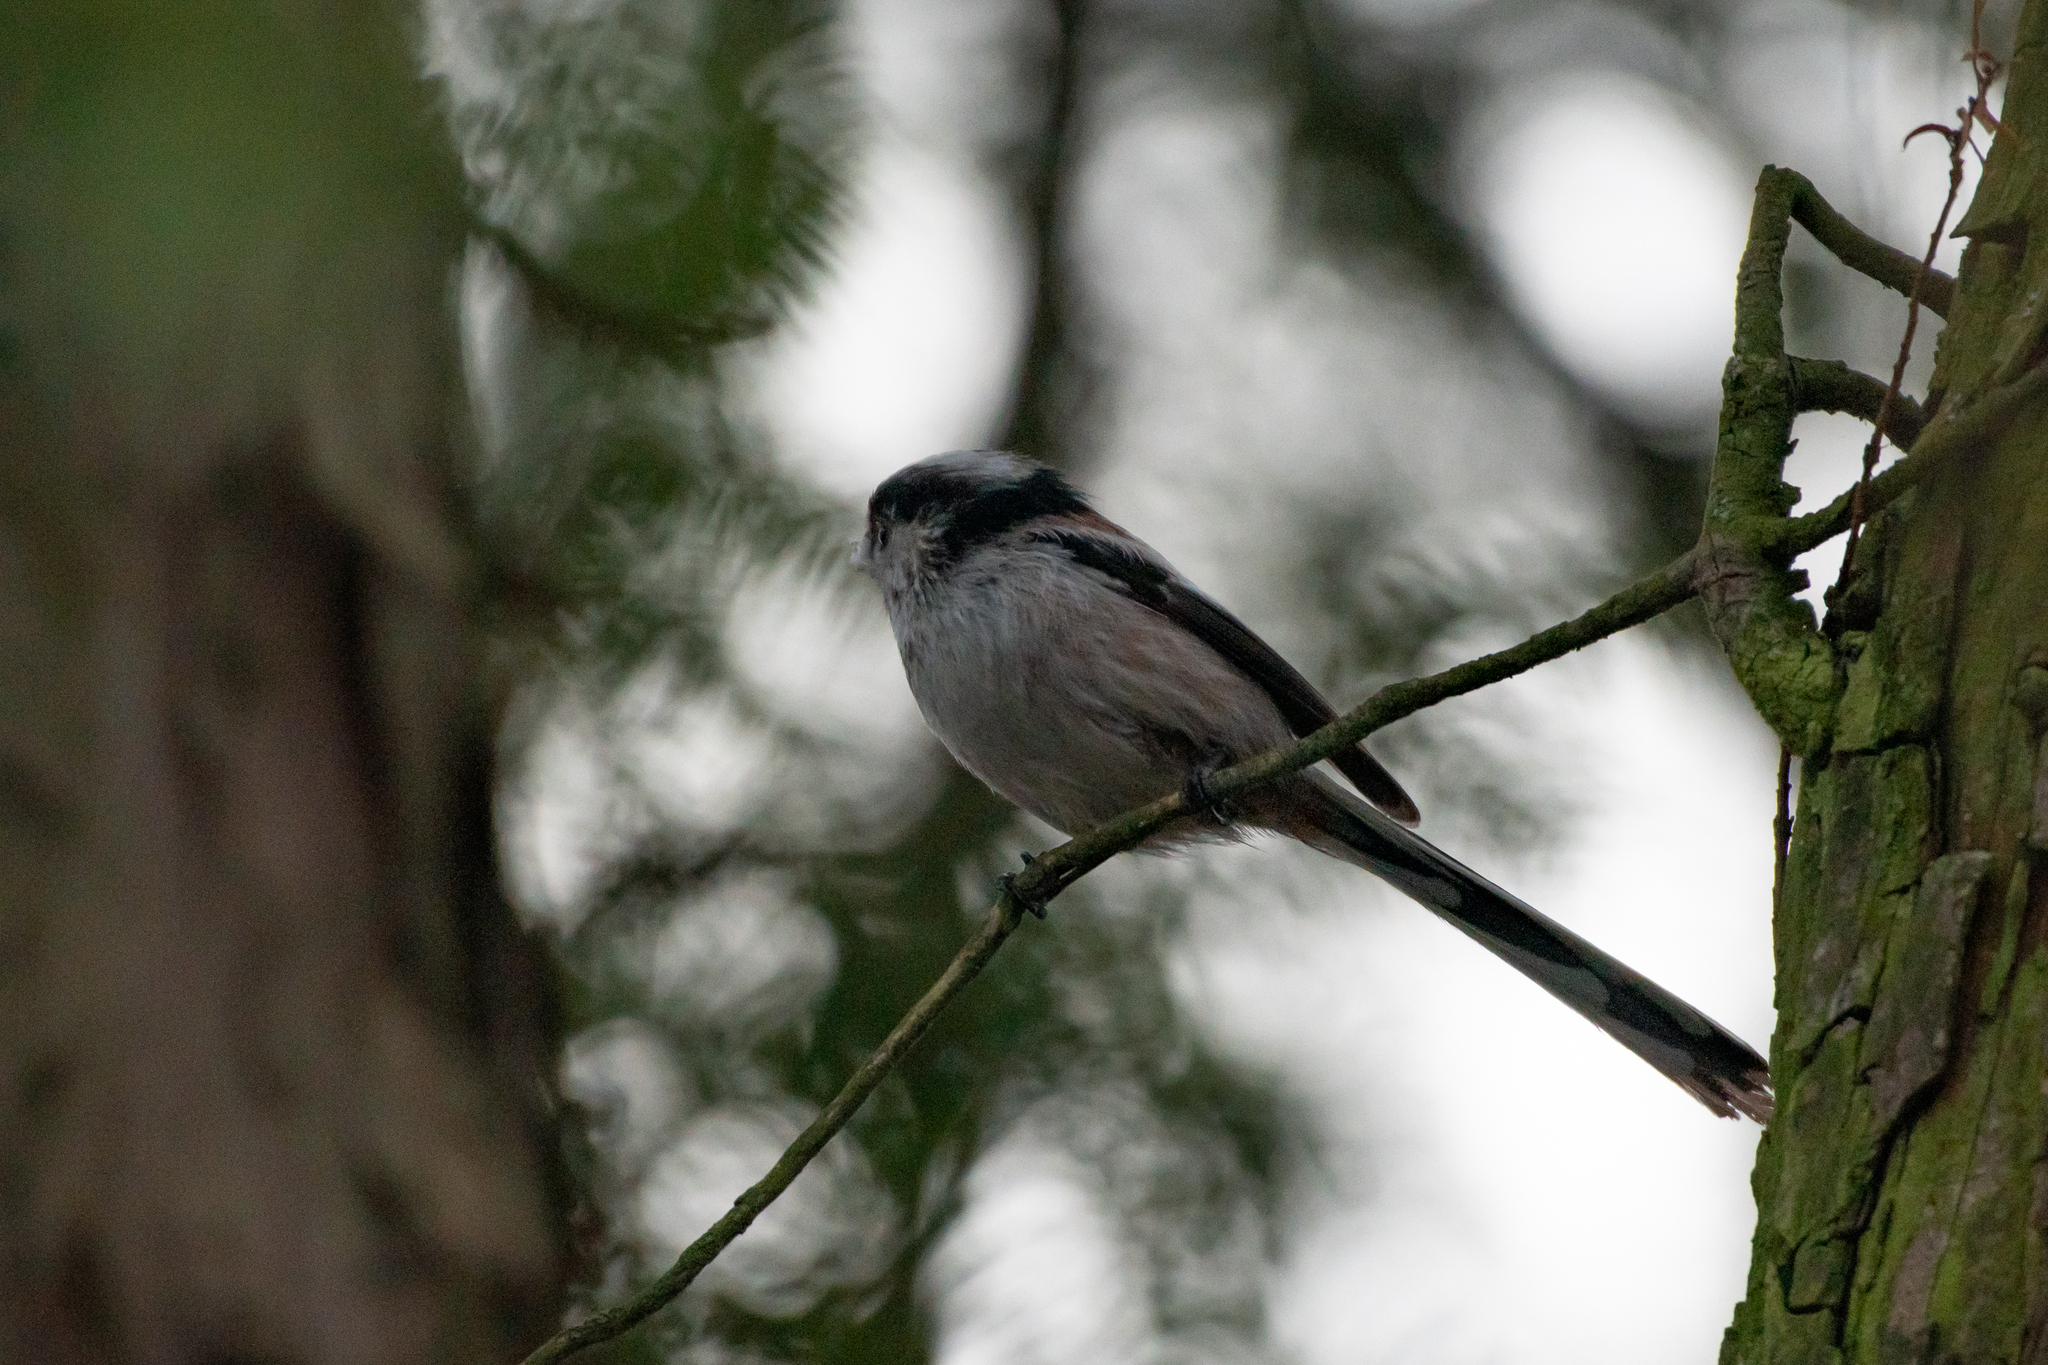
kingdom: Animalia
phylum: Chordata
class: Aves
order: Passeriformes
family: Aegithalidae
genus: Aegithalos
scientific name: Aegithalos caudatus
